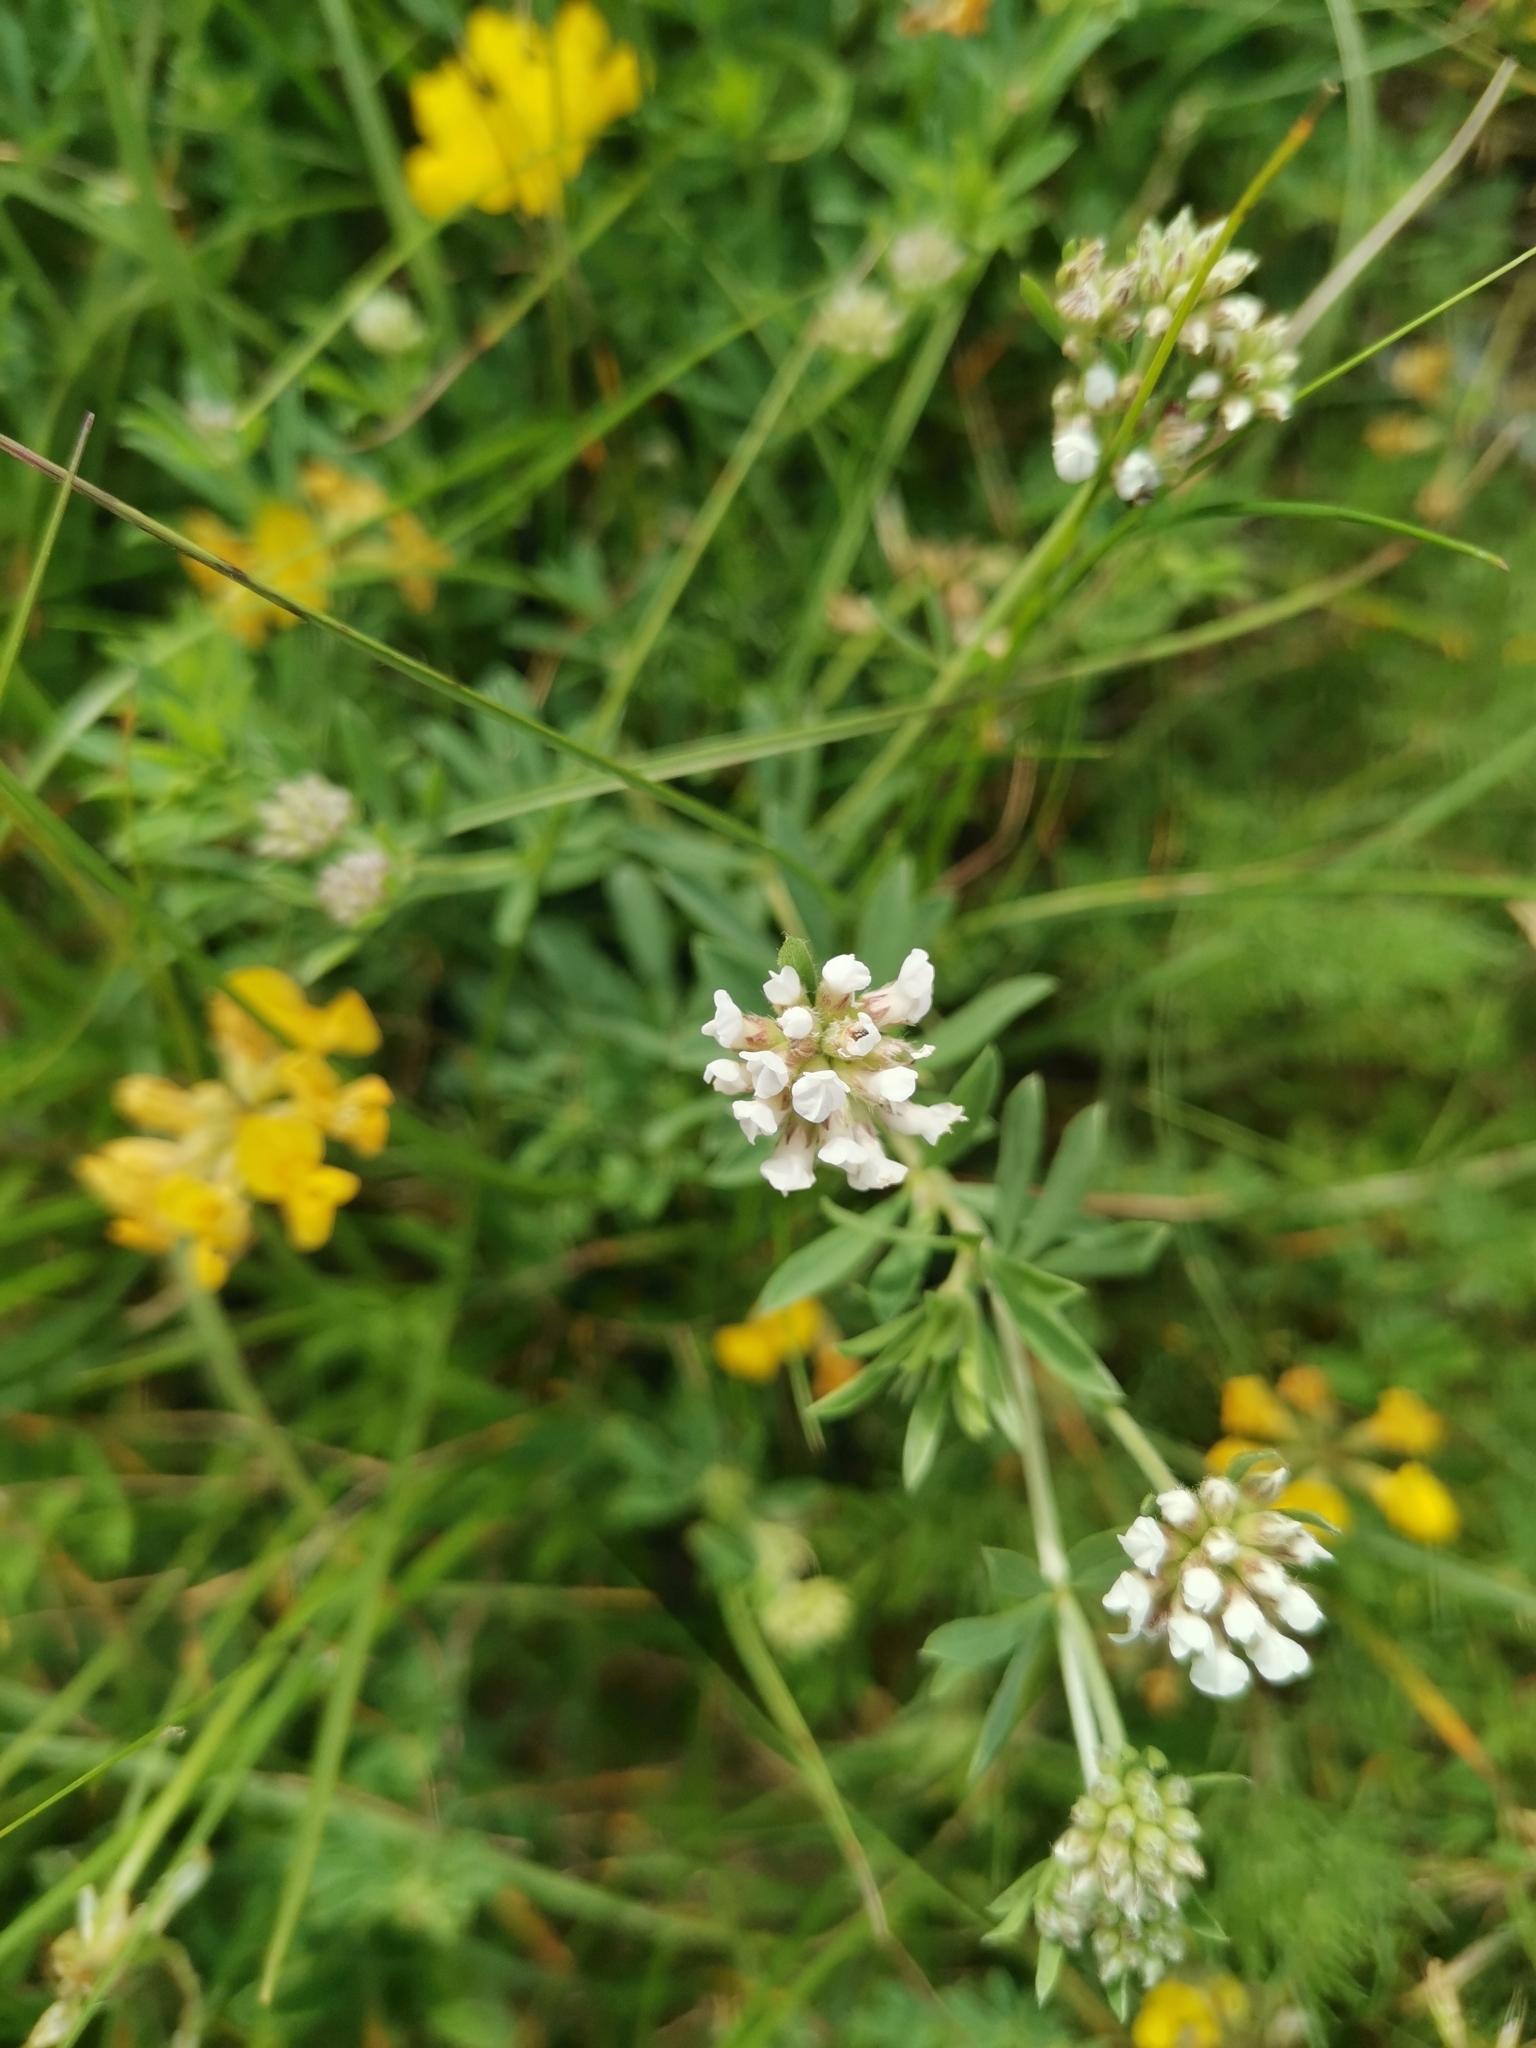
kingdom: Plantae
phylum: Tracheophyta
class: Magnoliopsida
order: Fabales
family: Fabaceae
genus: Lotus
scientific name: Lotus germanicus
